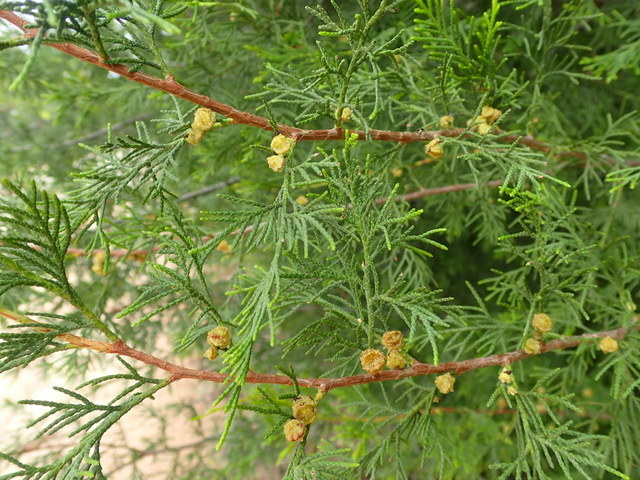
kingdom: Plantae
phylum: Tracheophyta
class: Pinopsida
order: Pinales
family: Cupressaceae
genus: Chamaecyparis
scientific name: Chamaecyparis thyoides
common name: Atlantic white cedar
